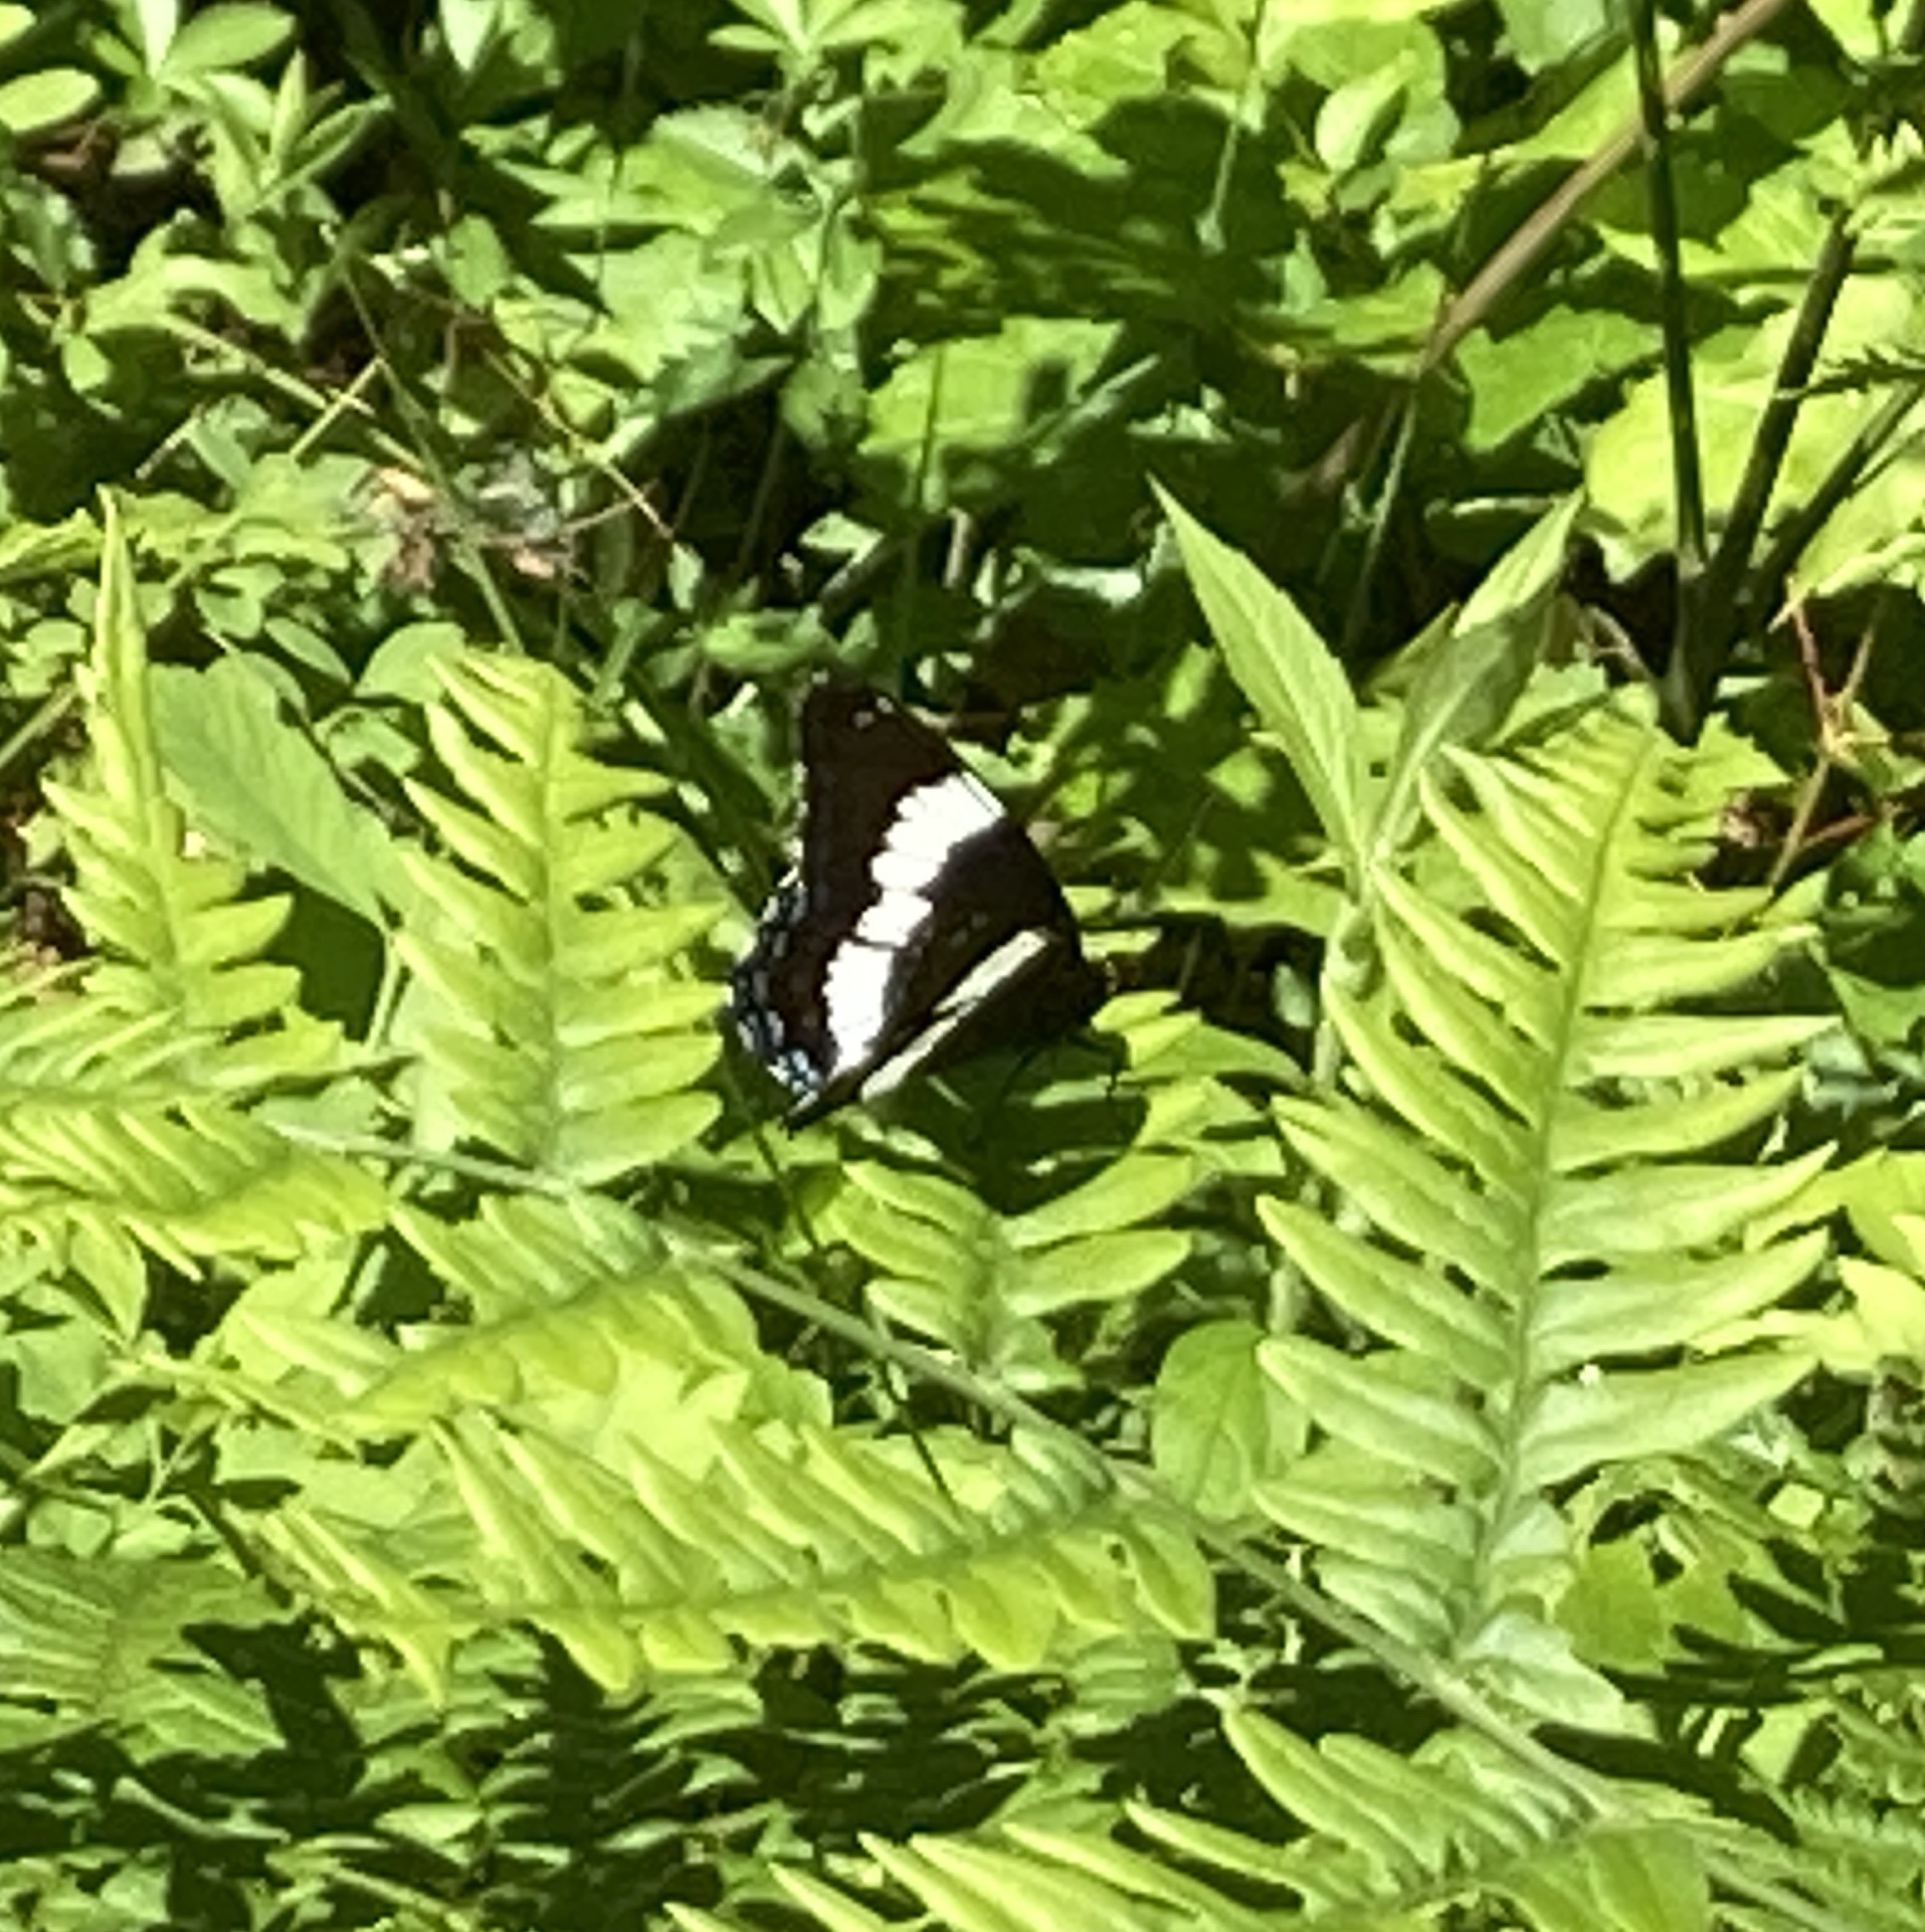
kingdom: Animalia
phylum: Arthropoda
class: Insecta
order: Lepidoptera
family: Nymphalidae
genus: Limenitis
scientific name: Limenitis arthemis
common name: Red-spotted admiral
